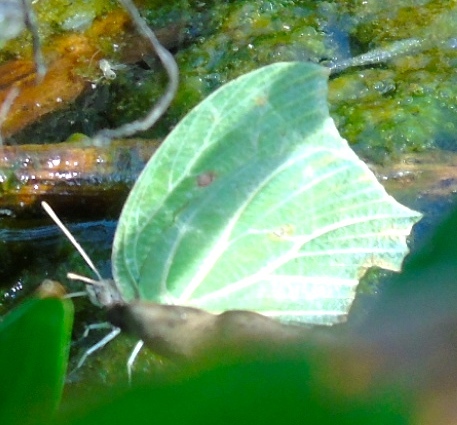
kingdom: Animalia
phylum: Arthropoda
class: Insecta
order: Lepidoptera
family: Pieridae
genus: Anteos
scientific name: Anteos clorinde
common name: White angled sulphur
